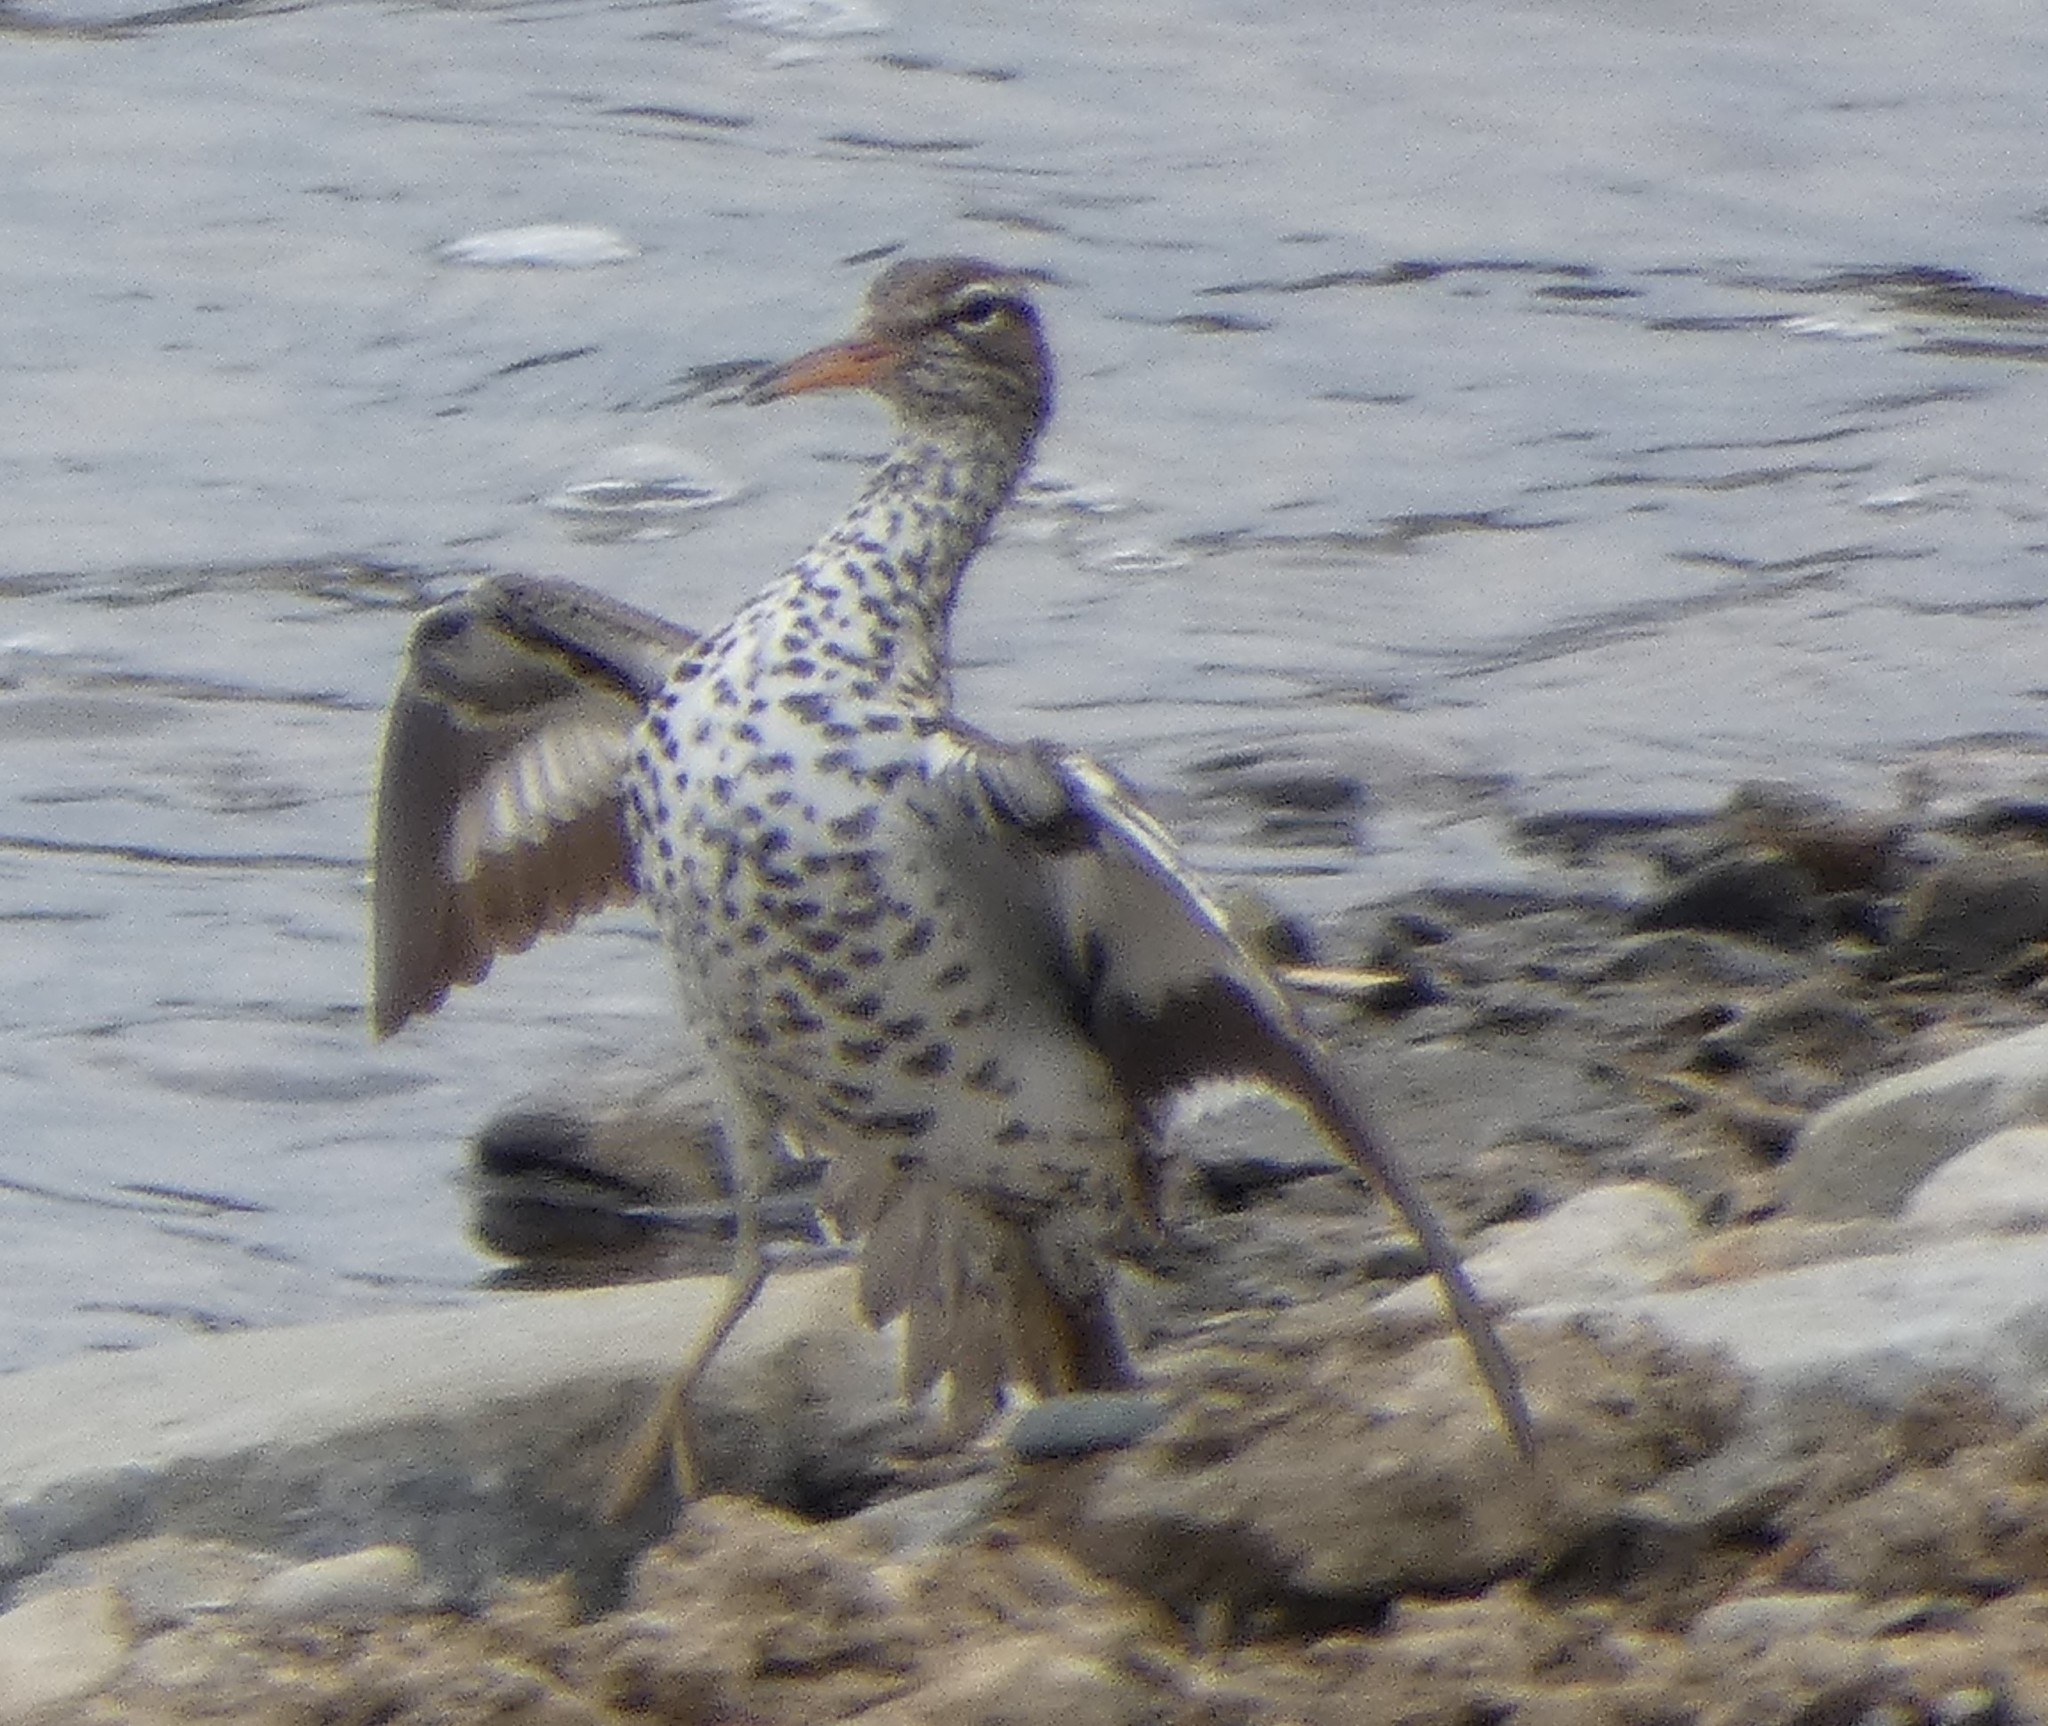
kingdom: Animalia
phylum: Chordata
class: Aves
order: Charadriiformes
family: Scolopacidae
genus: Actitis
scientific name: Actitis macularius
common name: Spotted sandpiper
